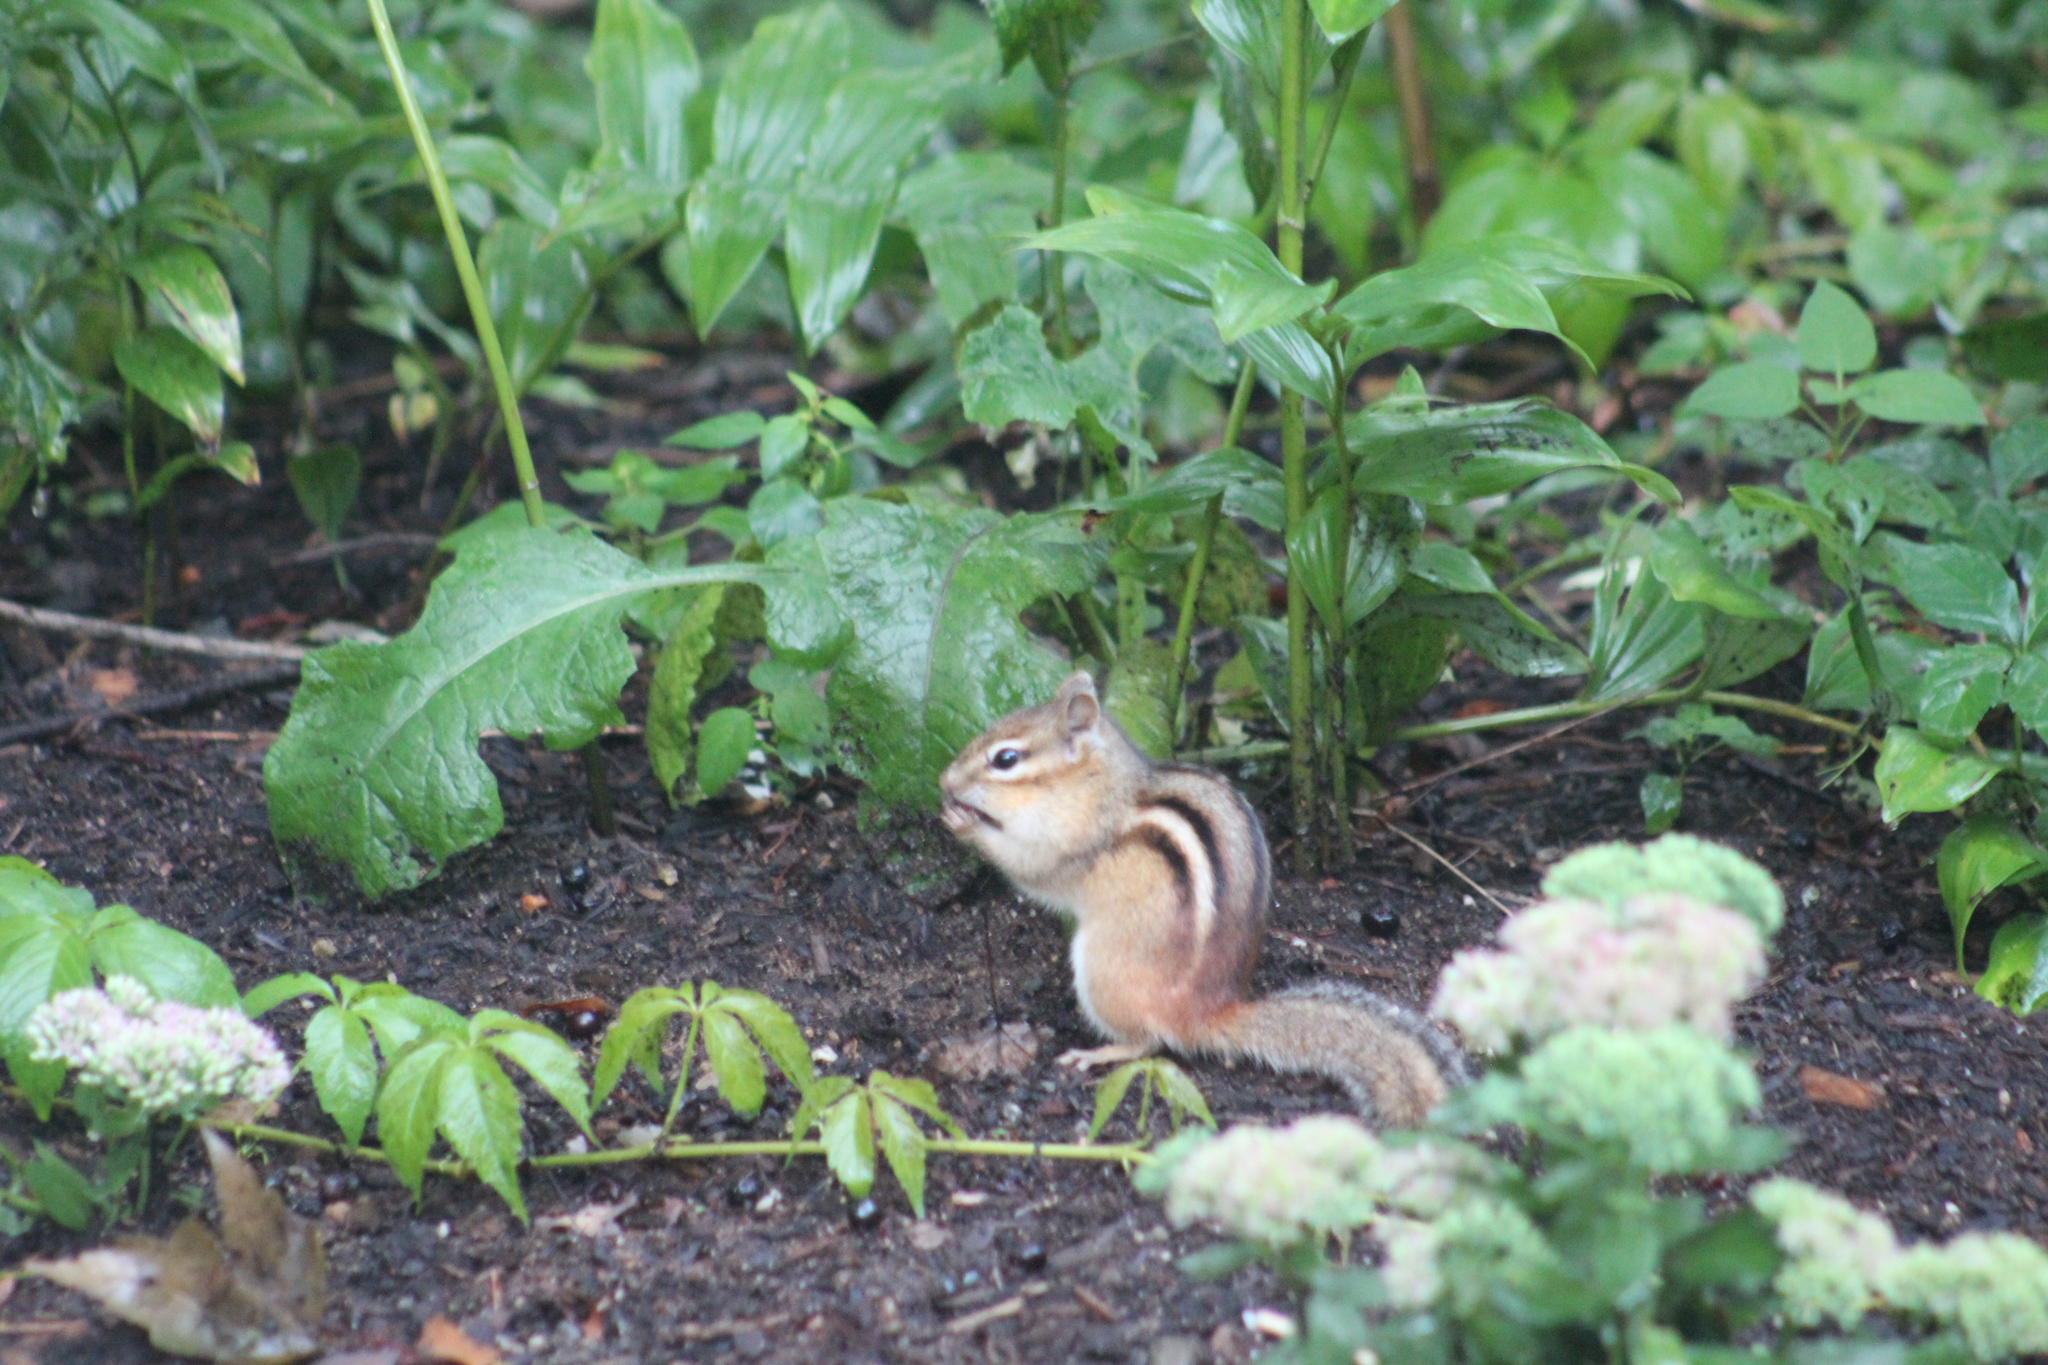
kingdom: Animalia
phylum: Chordata
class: Mammalia
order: Rodentia
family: Sciuridae
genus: Tamias
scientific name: Tamias striatus
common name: Eastern chipmunk
